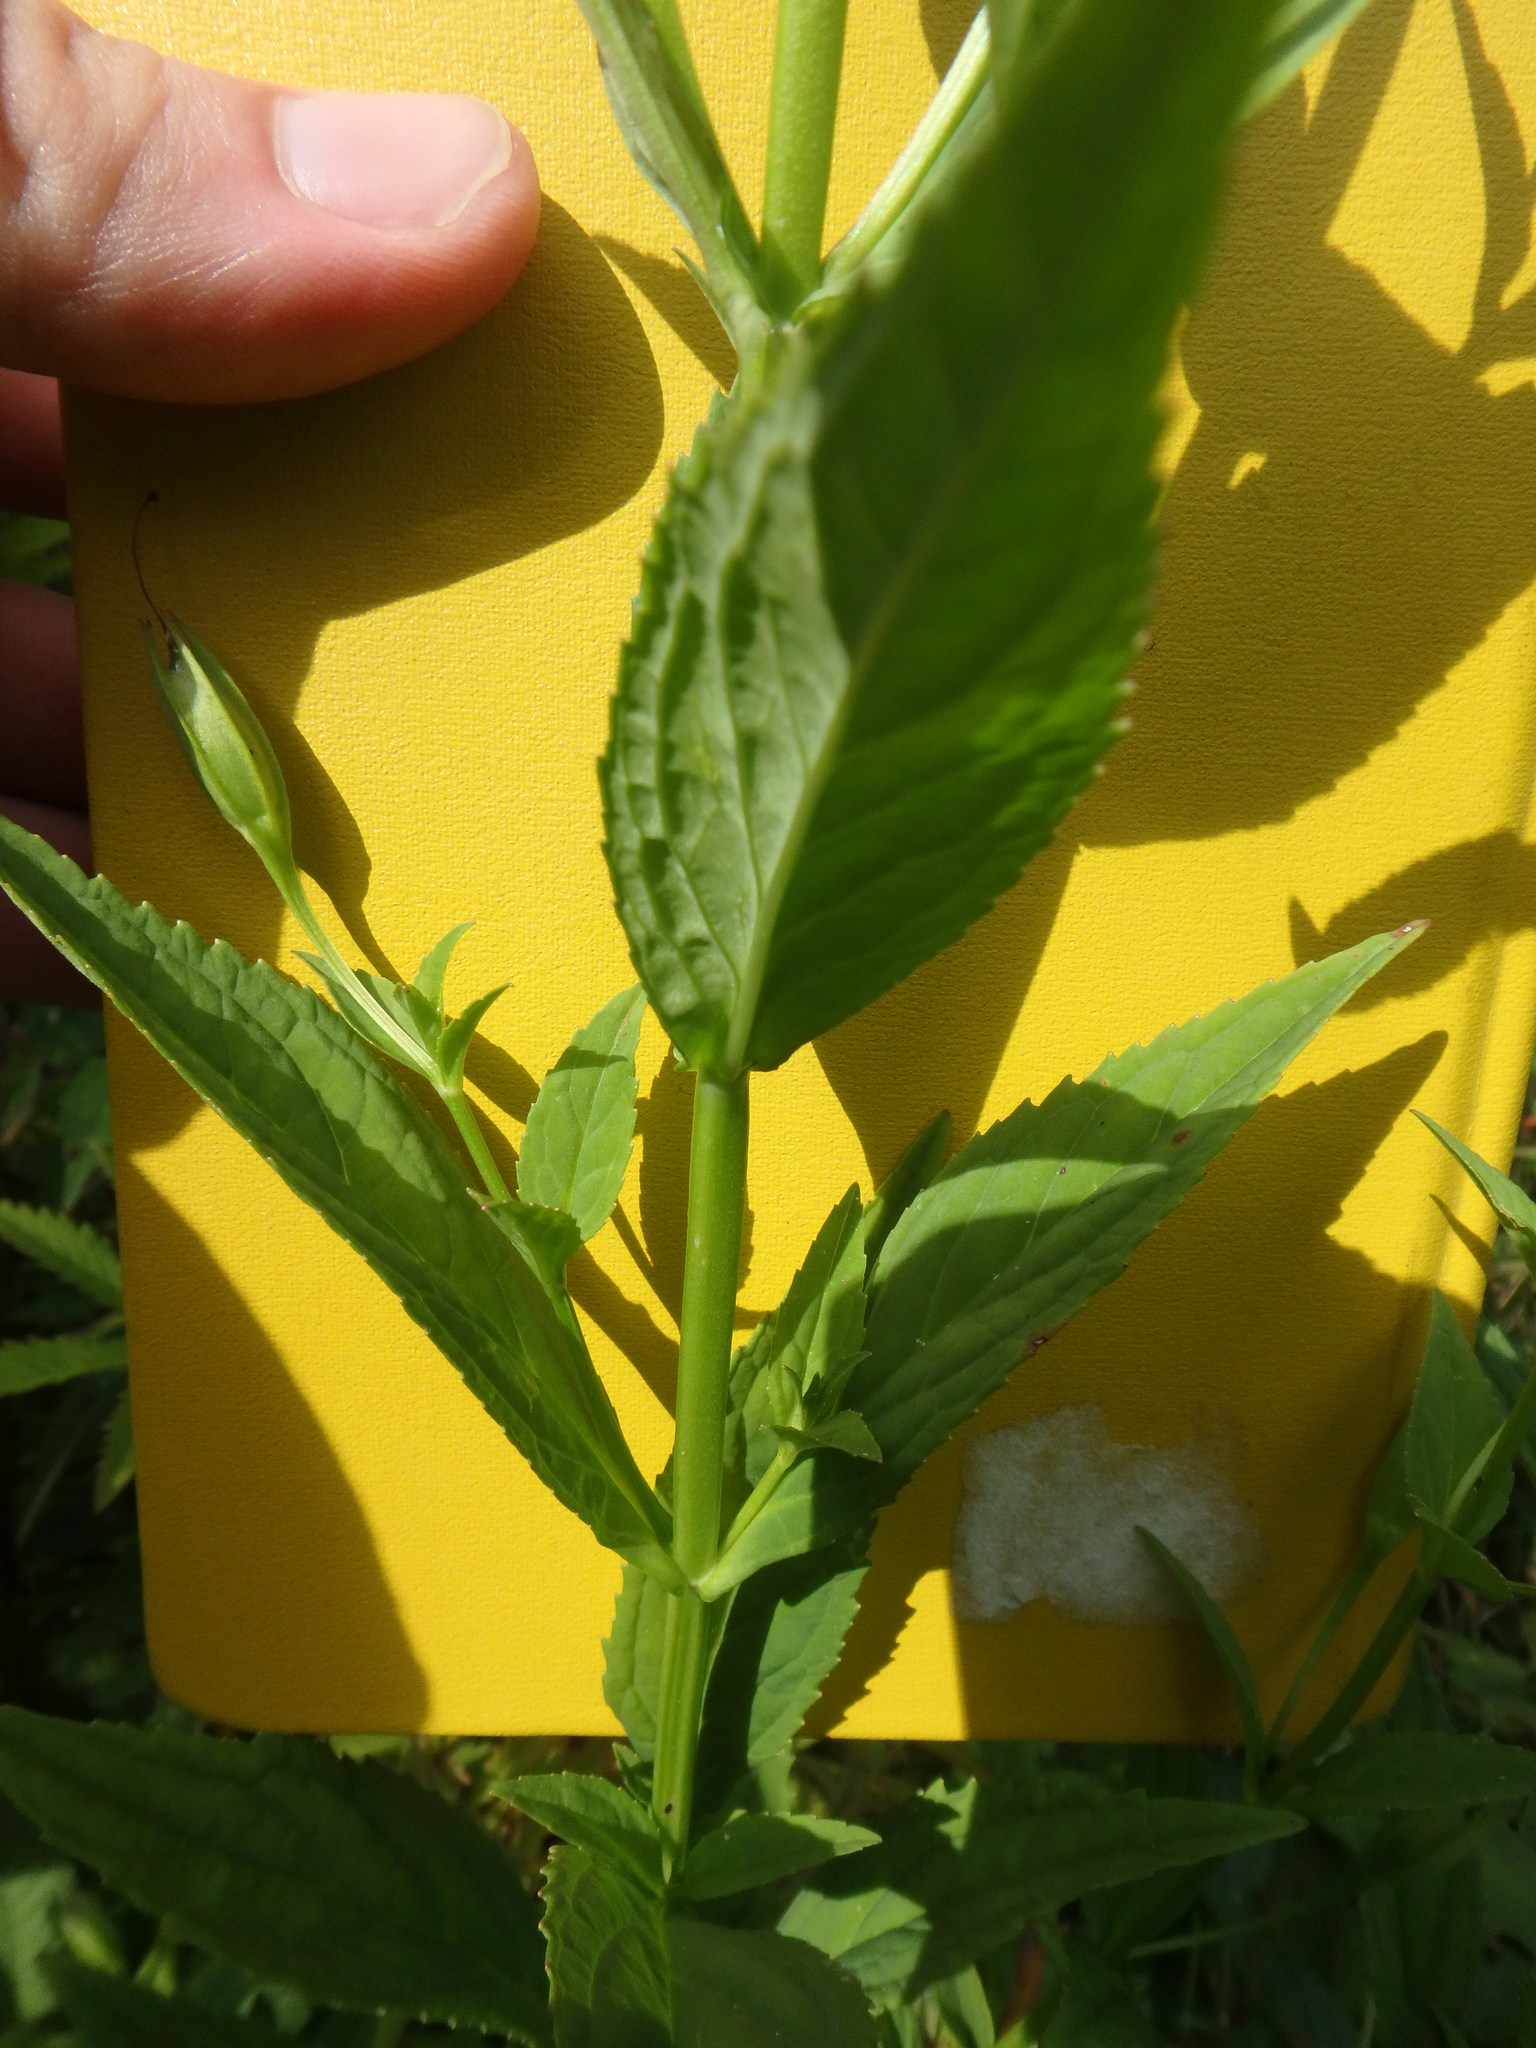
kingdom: Plantae
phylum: Tracheophyta
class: Magnoliopsida
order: Lamiales
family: Phrymaceae
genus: Mimulus
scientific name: Mimulus ringens
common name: Allegheny monkeyflower
